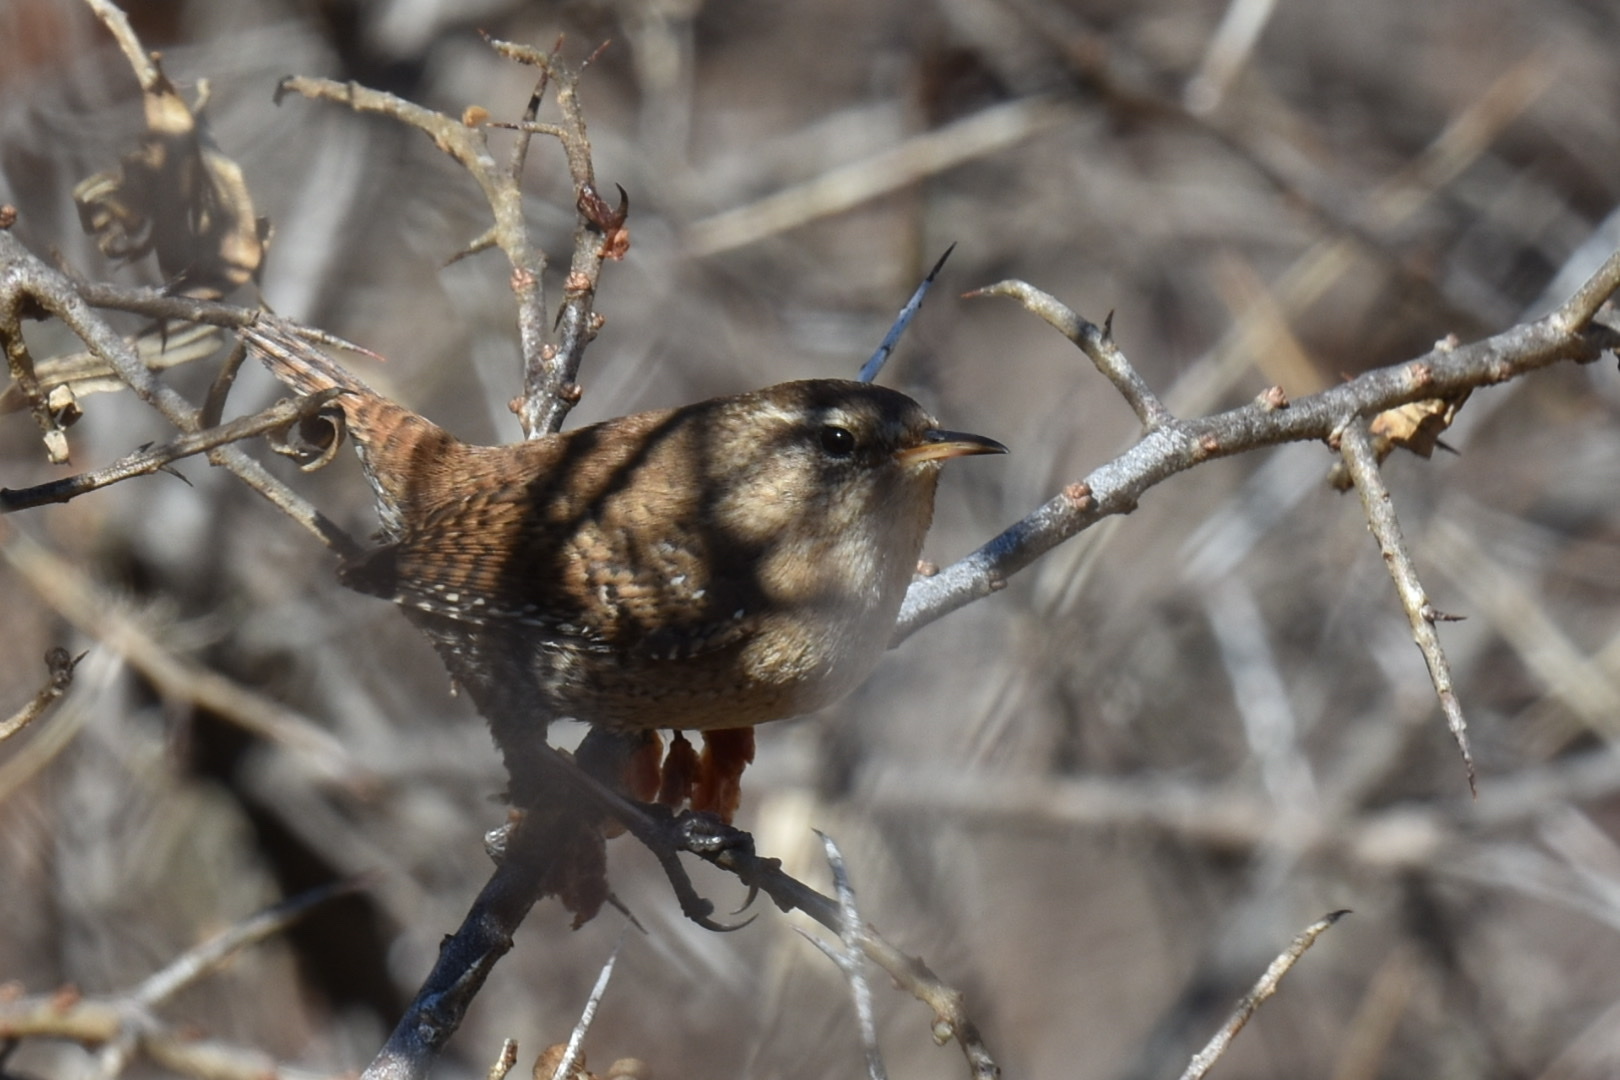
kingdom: Animalia
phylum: Chordata
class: Aves
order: Passeriformes
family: Troglodytidae
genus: Troglodytes
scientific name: Troglodytes troglodytes
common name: Eurasian wren
